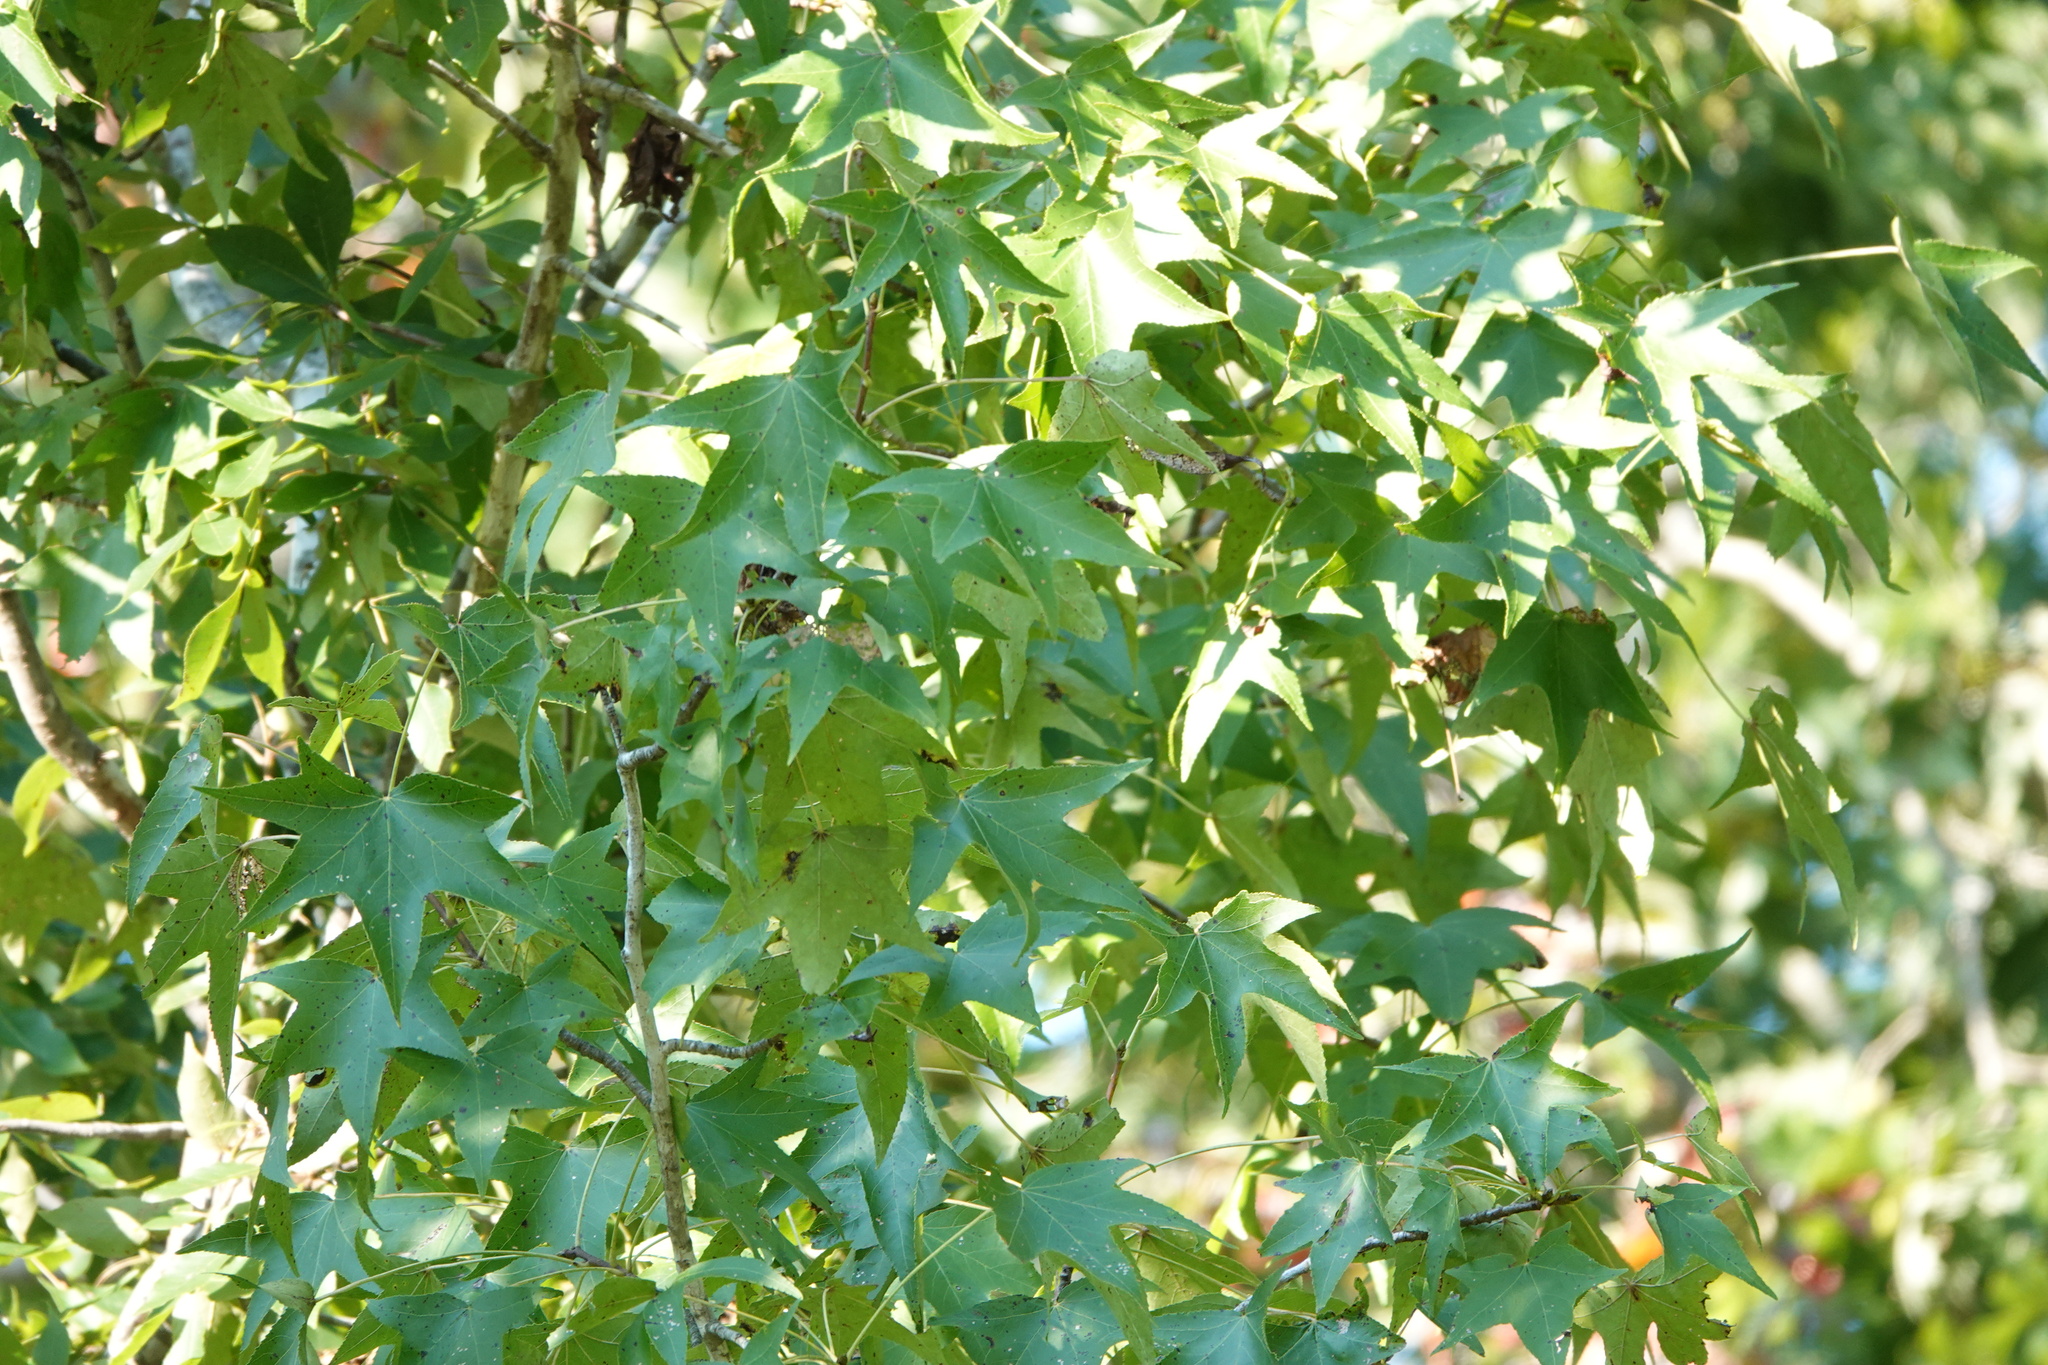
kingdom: Plantae
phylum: Tracheophyta
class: Magnoliopsida
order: Saxifragales
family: Altingiaceae
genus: Liquidambar
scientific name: Liquidambar styraciflua
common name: Sweet gum
